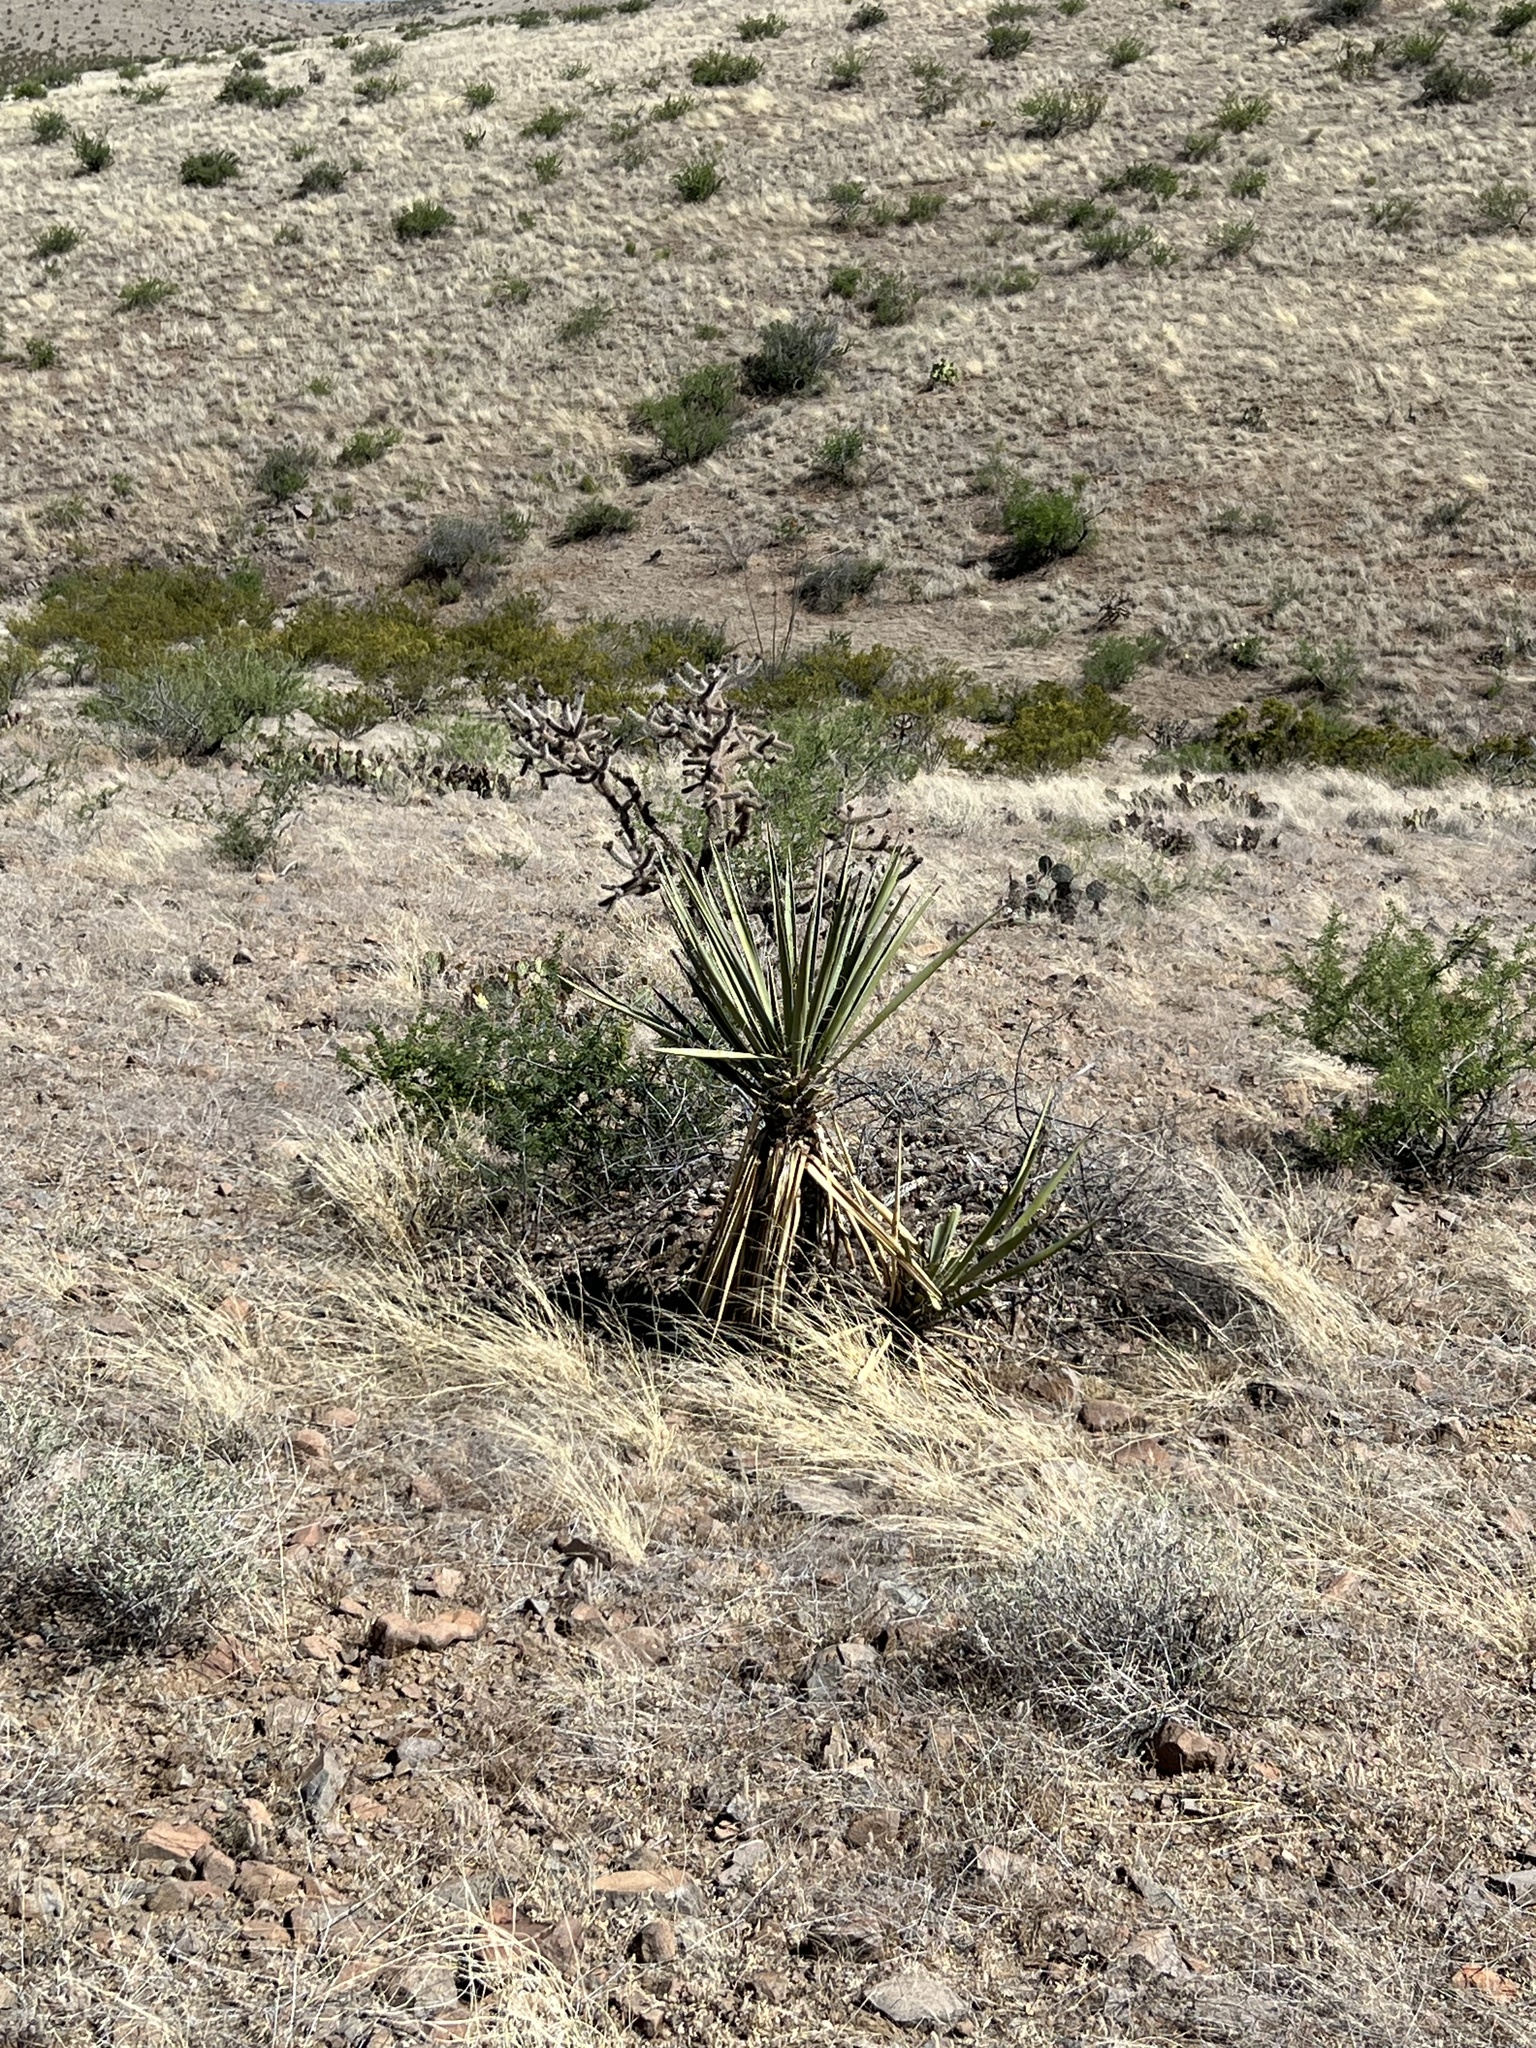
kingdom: Plantae
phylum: Tracheophyta
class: Liliopsida
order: Asparagales
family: Asparagaceae
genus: Yucca
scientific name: Yucca baccata
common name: Banana yucca
